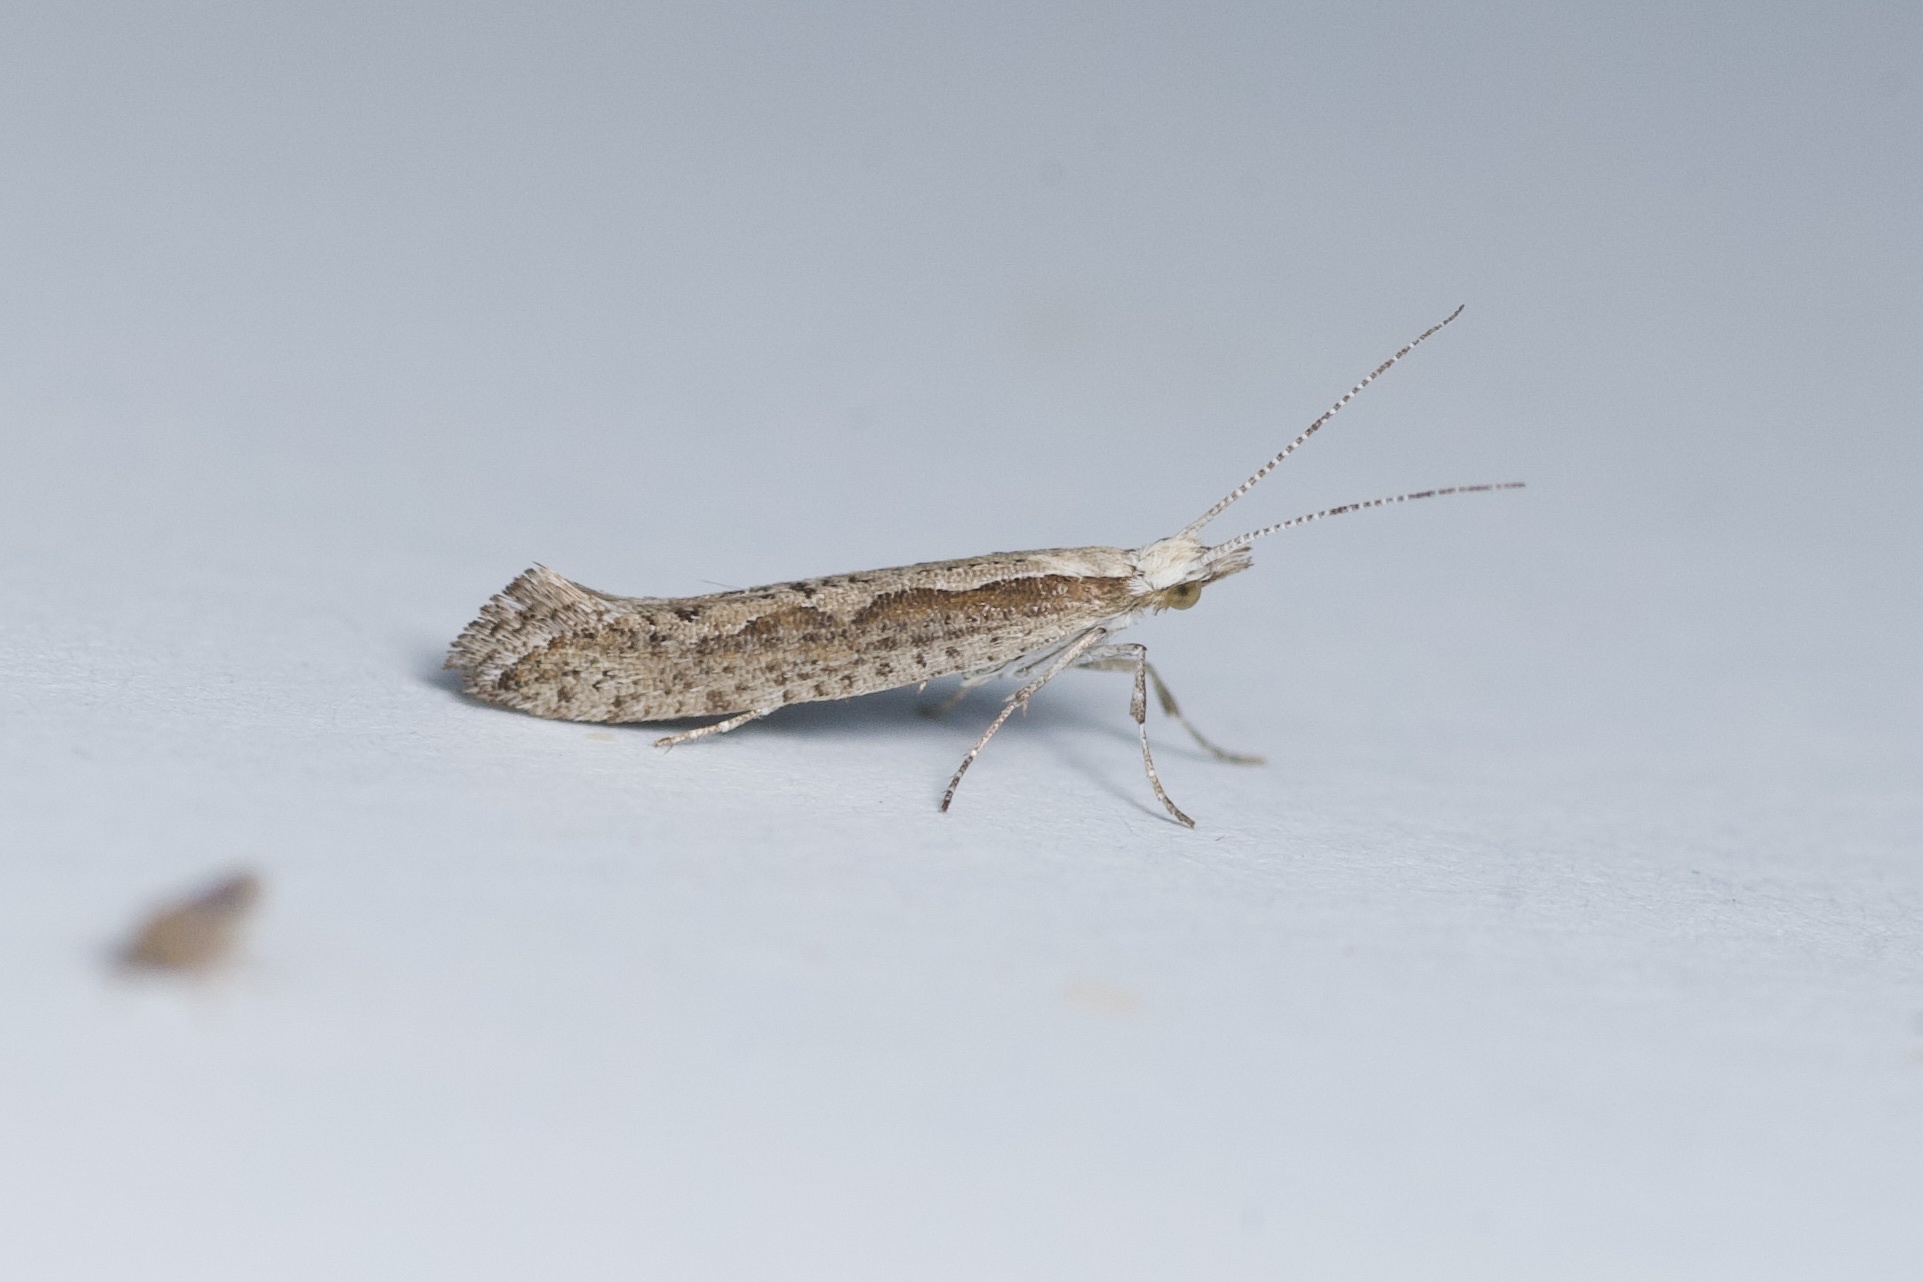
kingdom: Animalia
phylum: Arthropoda
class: Insecta
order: Lepidoptera
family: Plutellidae
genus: Plutella
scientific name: Plutella xylostella
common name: Diamond-back moth
